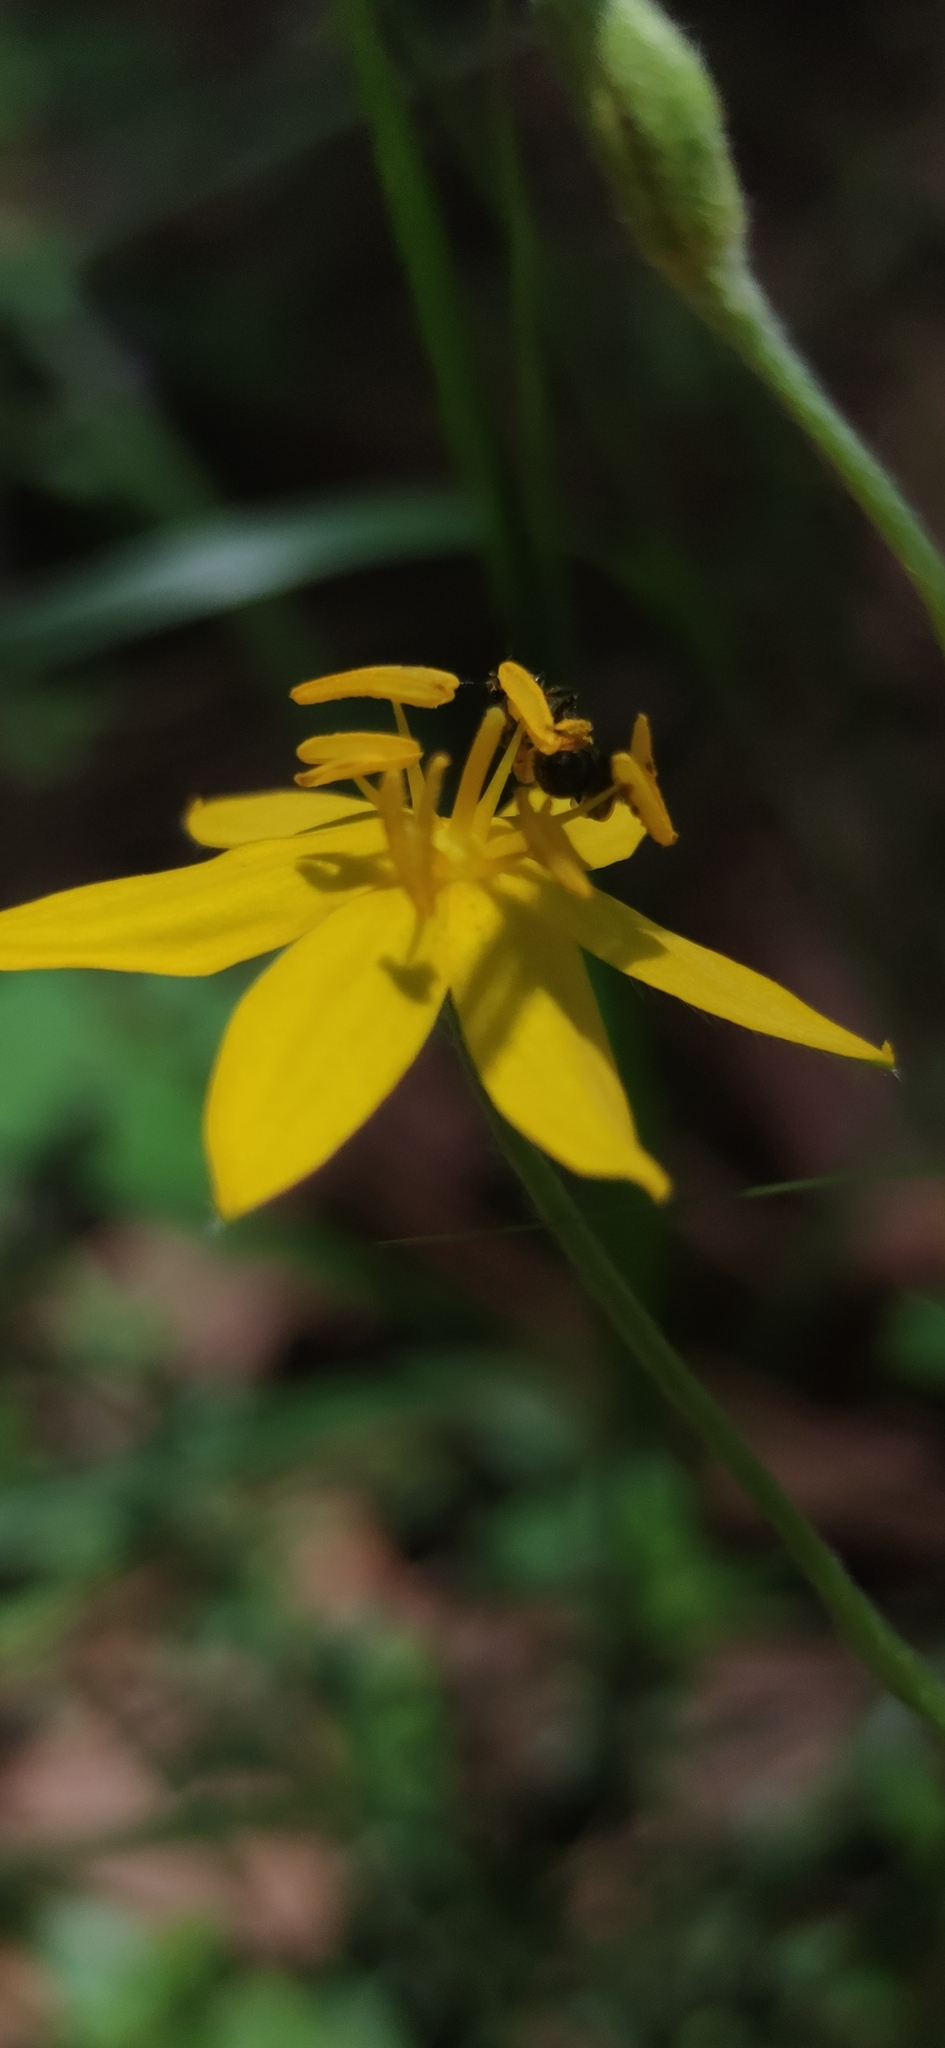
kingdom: Plantae
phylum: Tracheophyta
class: Liliopsida
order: Asparagales
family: Hypoxidaceae
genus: Hypoxis
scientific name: Hypoxis hirsuta
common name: Common goldstar
